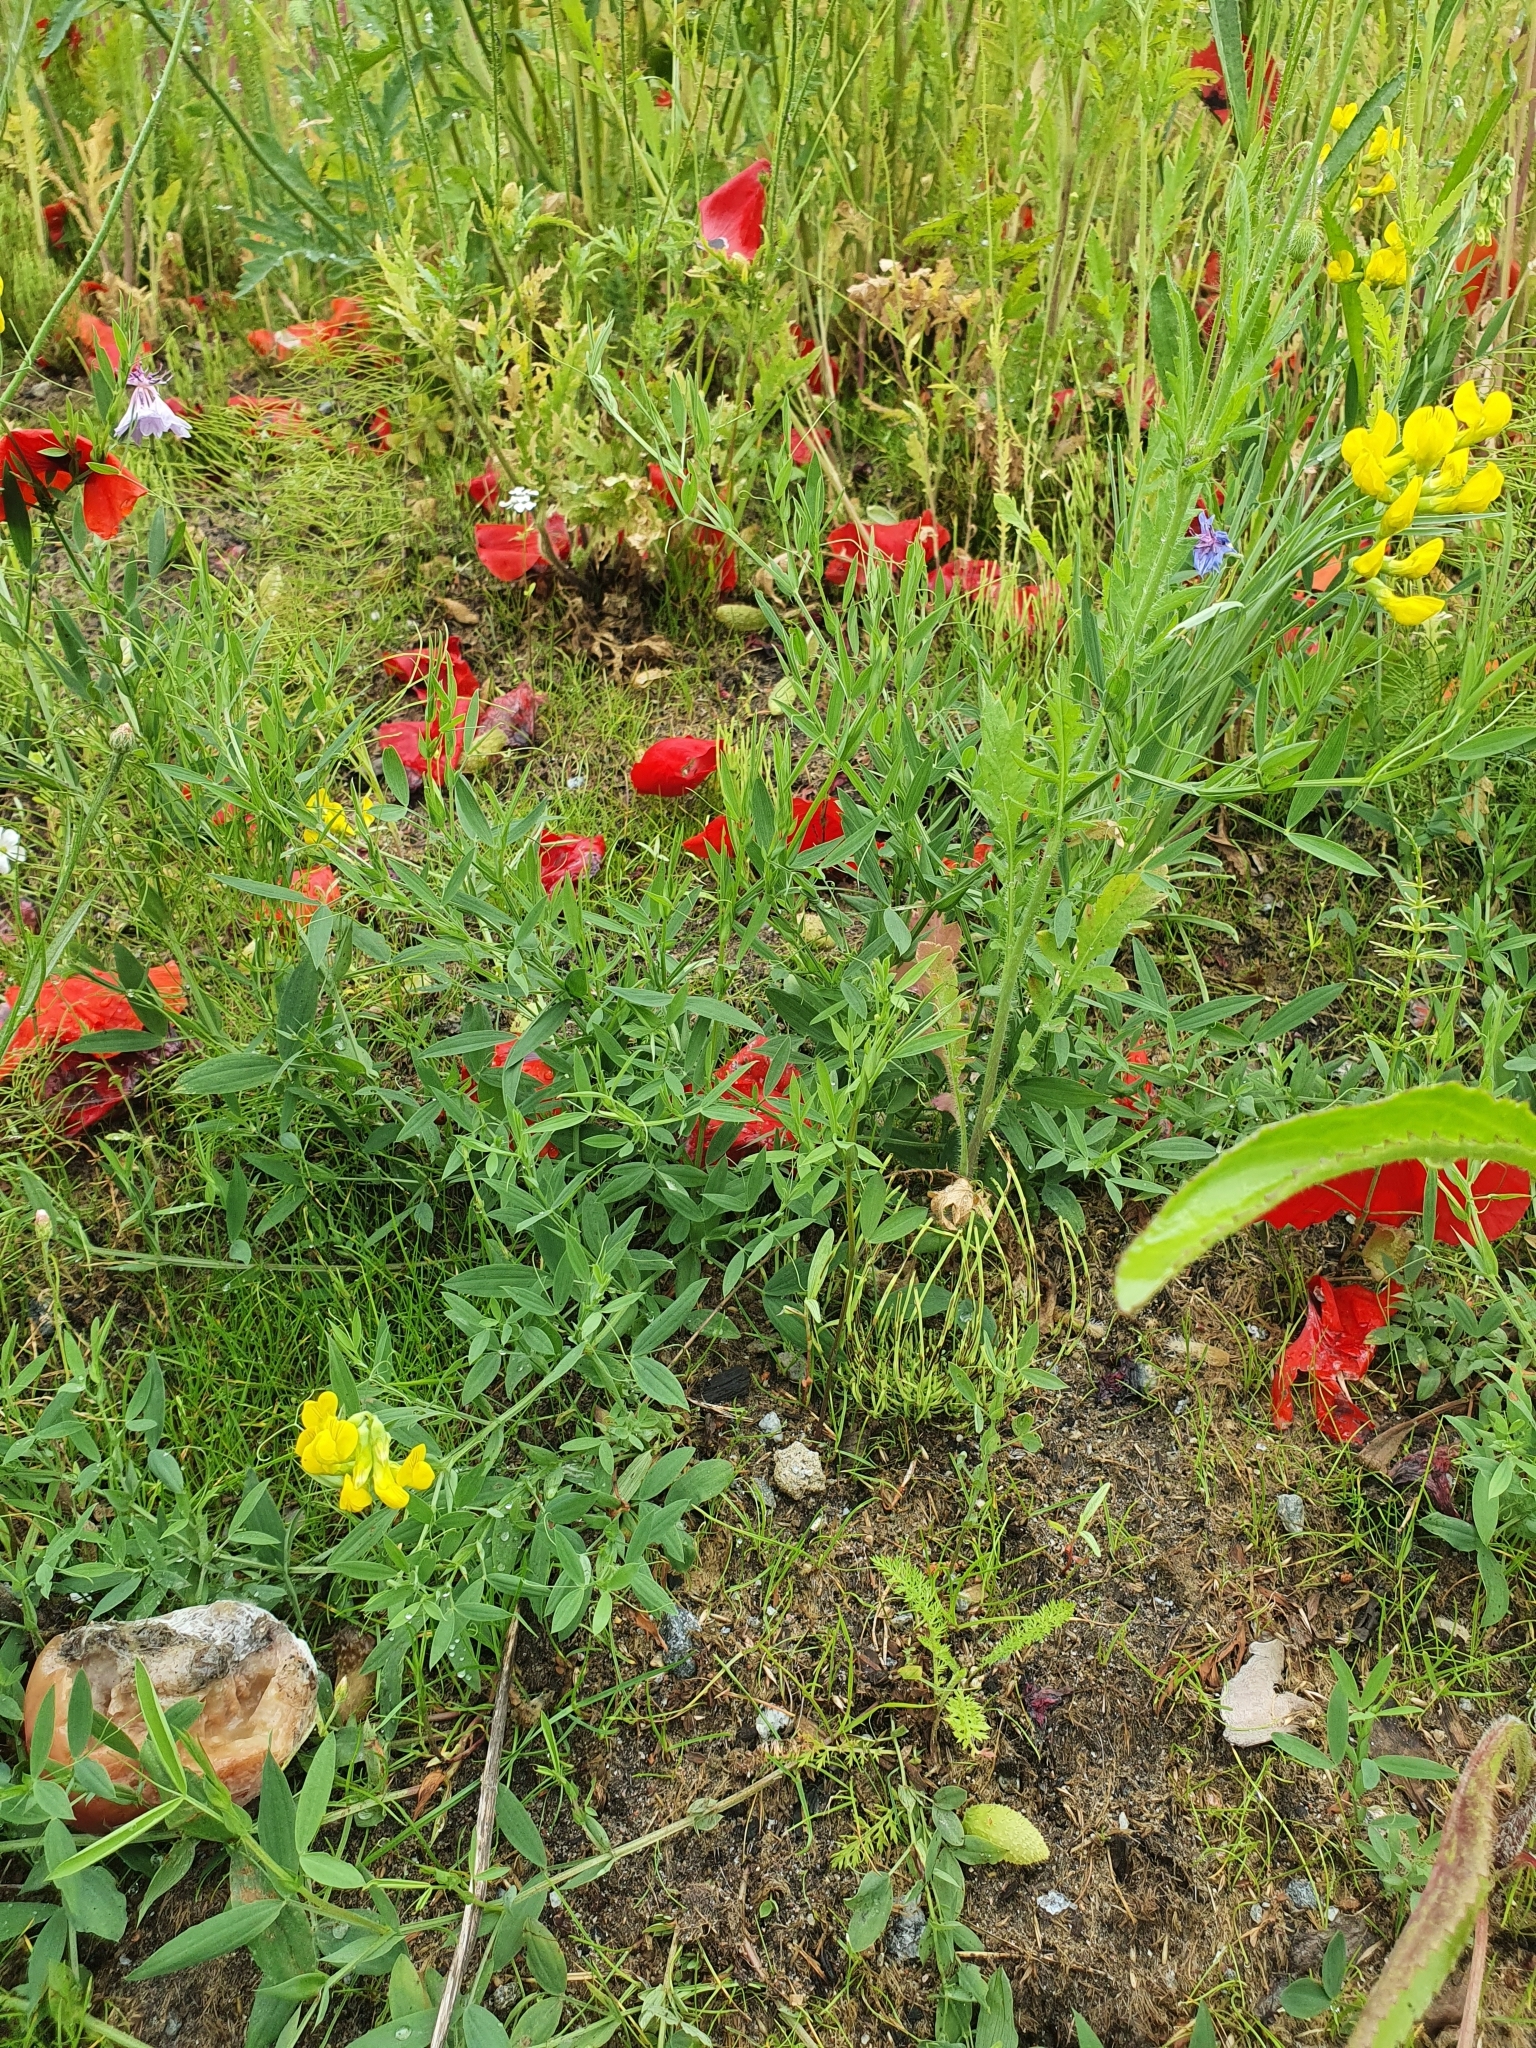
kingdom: Plantae
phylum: Tracheophyta
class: Magnoliopsida
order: Fabales
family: Fabaceae
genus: Lathyrus
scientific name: Lathyrus pratensis
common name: Meadow vetchling
